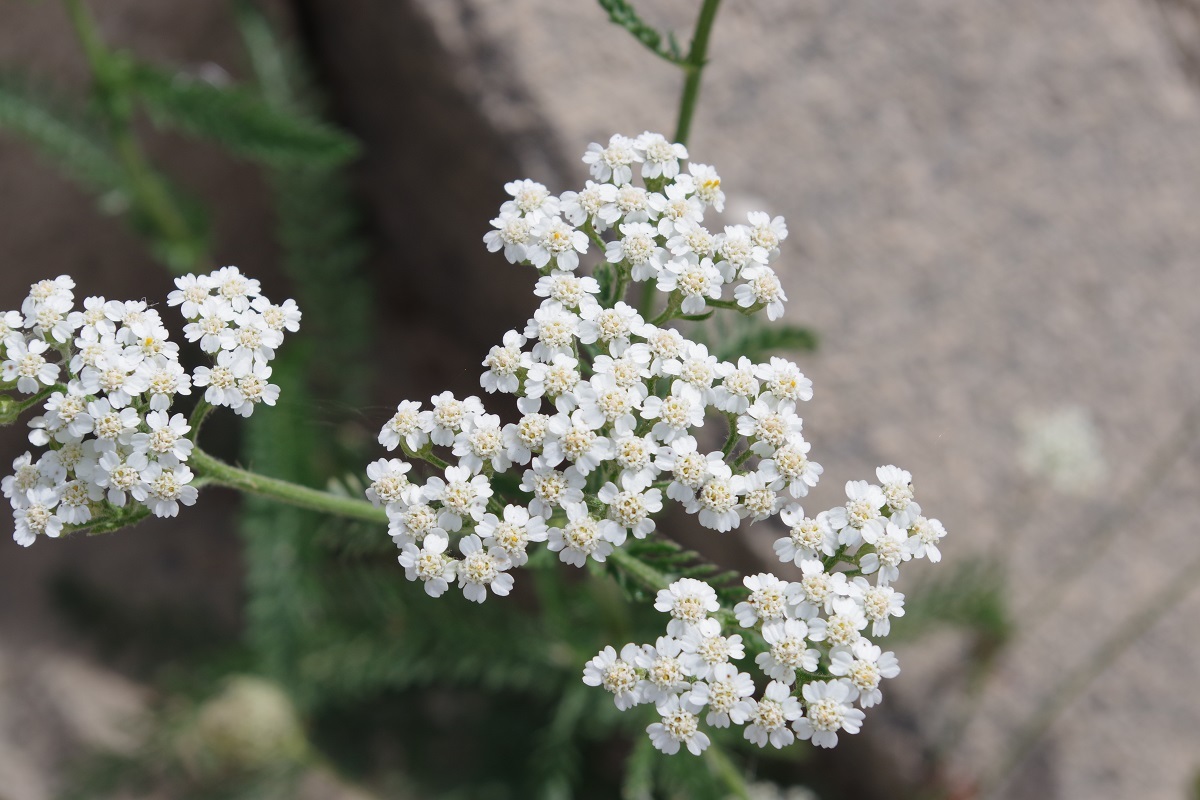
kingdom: Plantae
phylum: Tracheophyta
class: Magnoliopsida
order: Asterales
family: Asteraceae
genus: Achillea
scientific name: Achillea millefolium
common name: Yarrow
